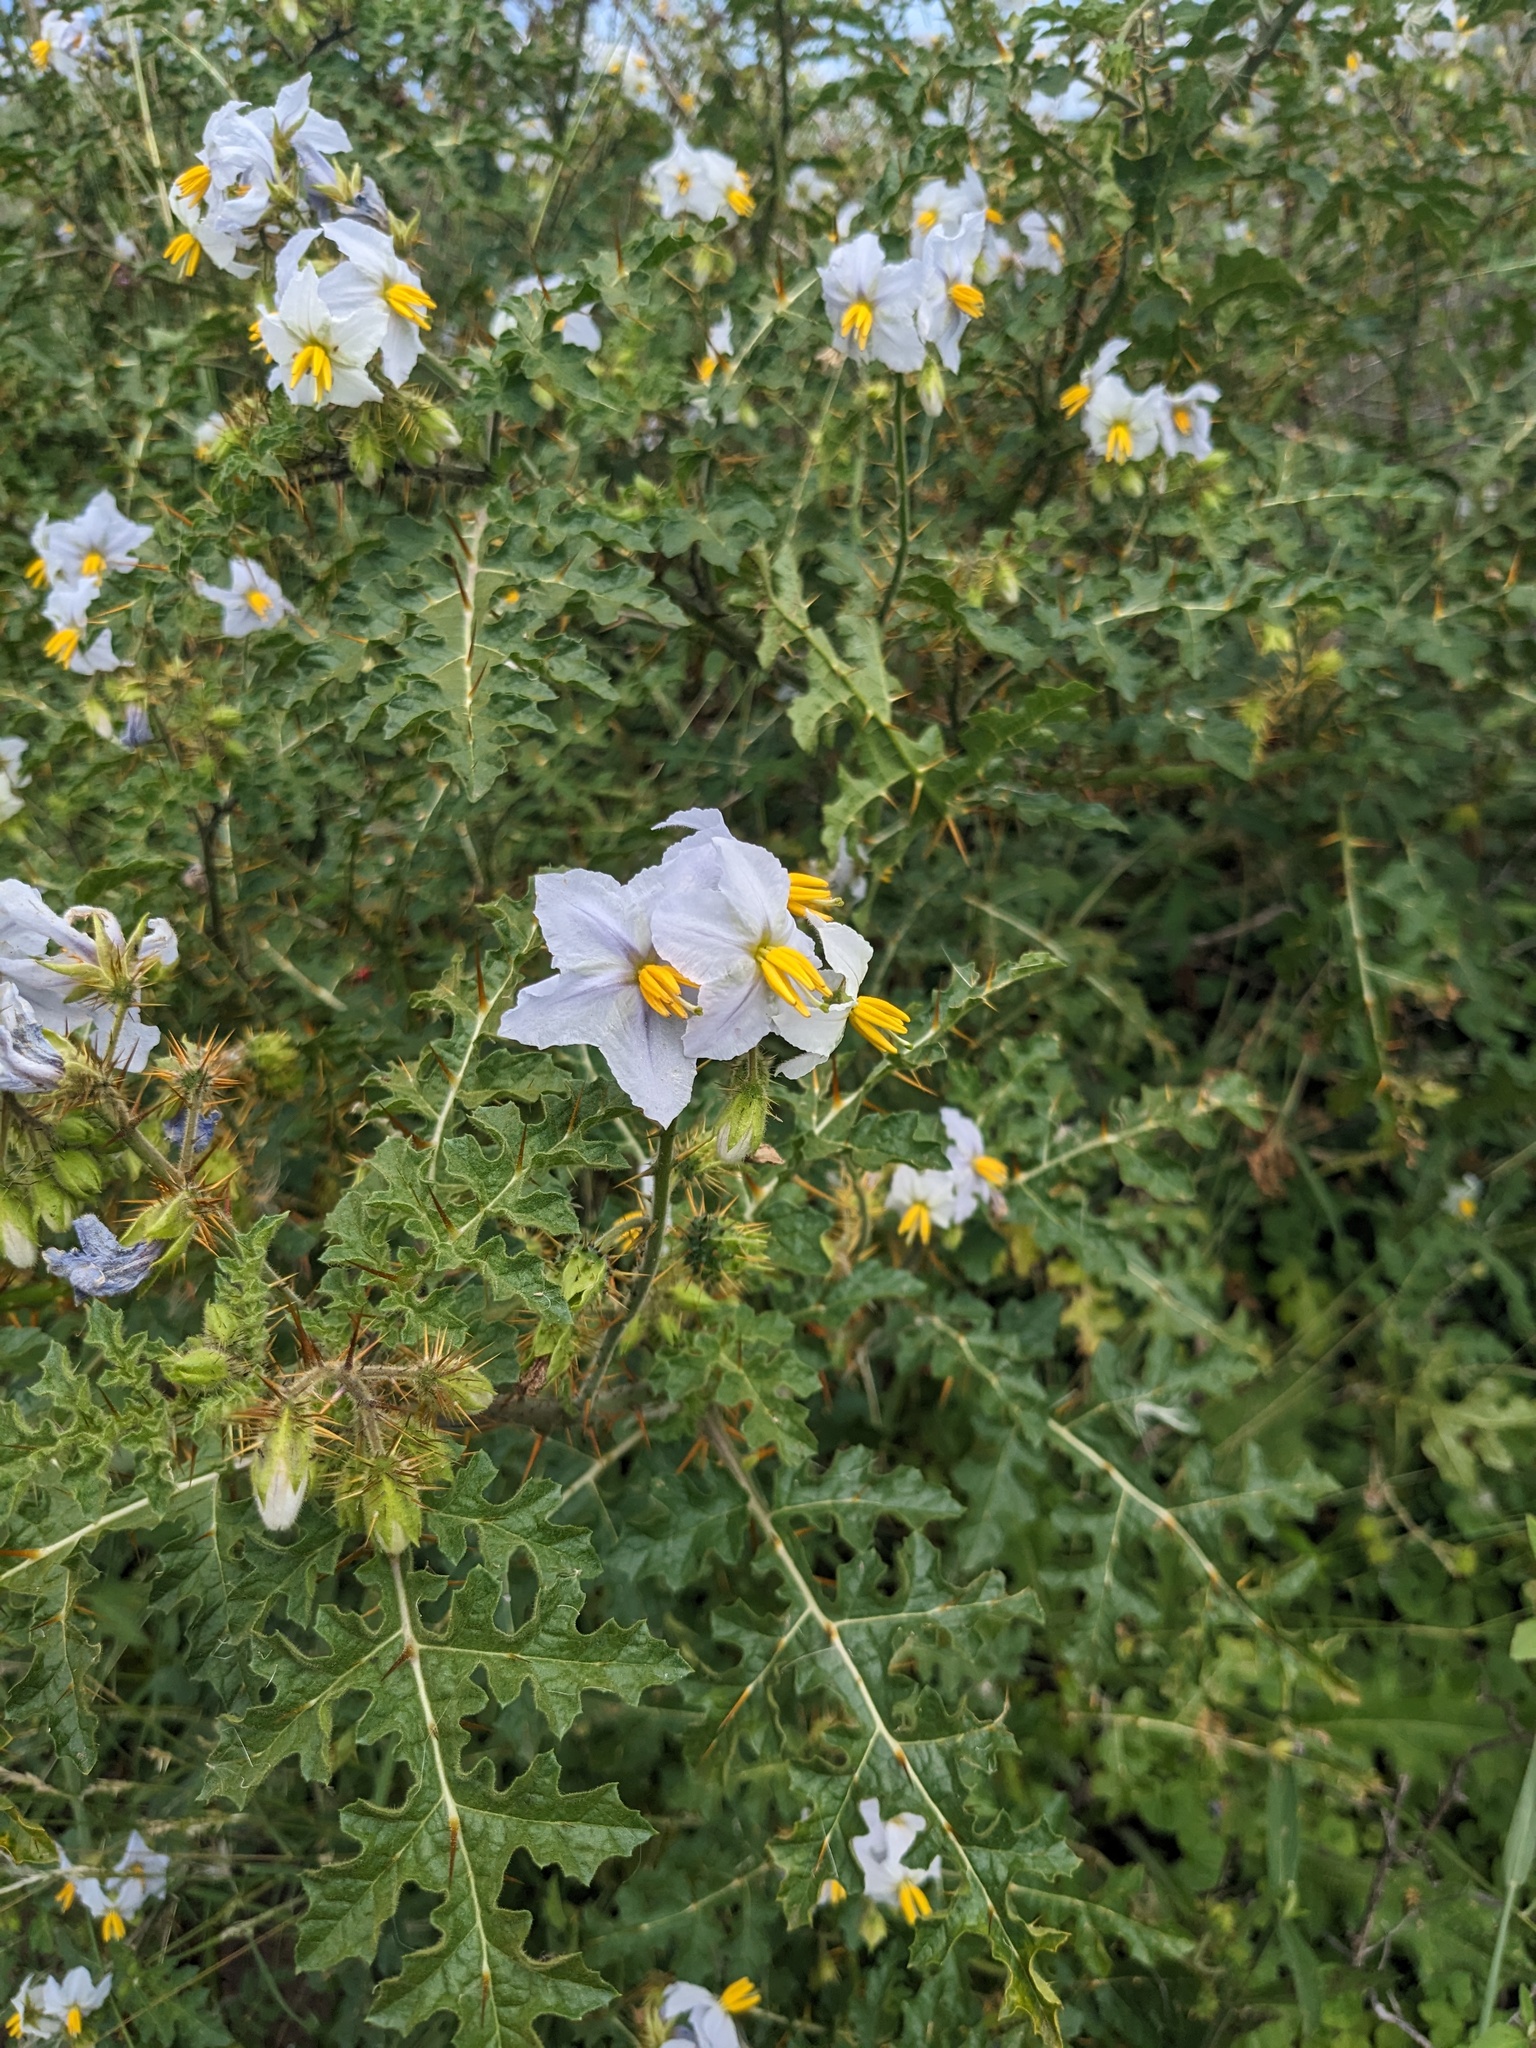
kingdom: Plantae
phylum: Tracheophyta
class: Magnoliopsida
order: Solanales
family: Solanaceae
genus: Solanum
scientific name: Solanum sisymbriifolium
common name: Red buffalo-bur
